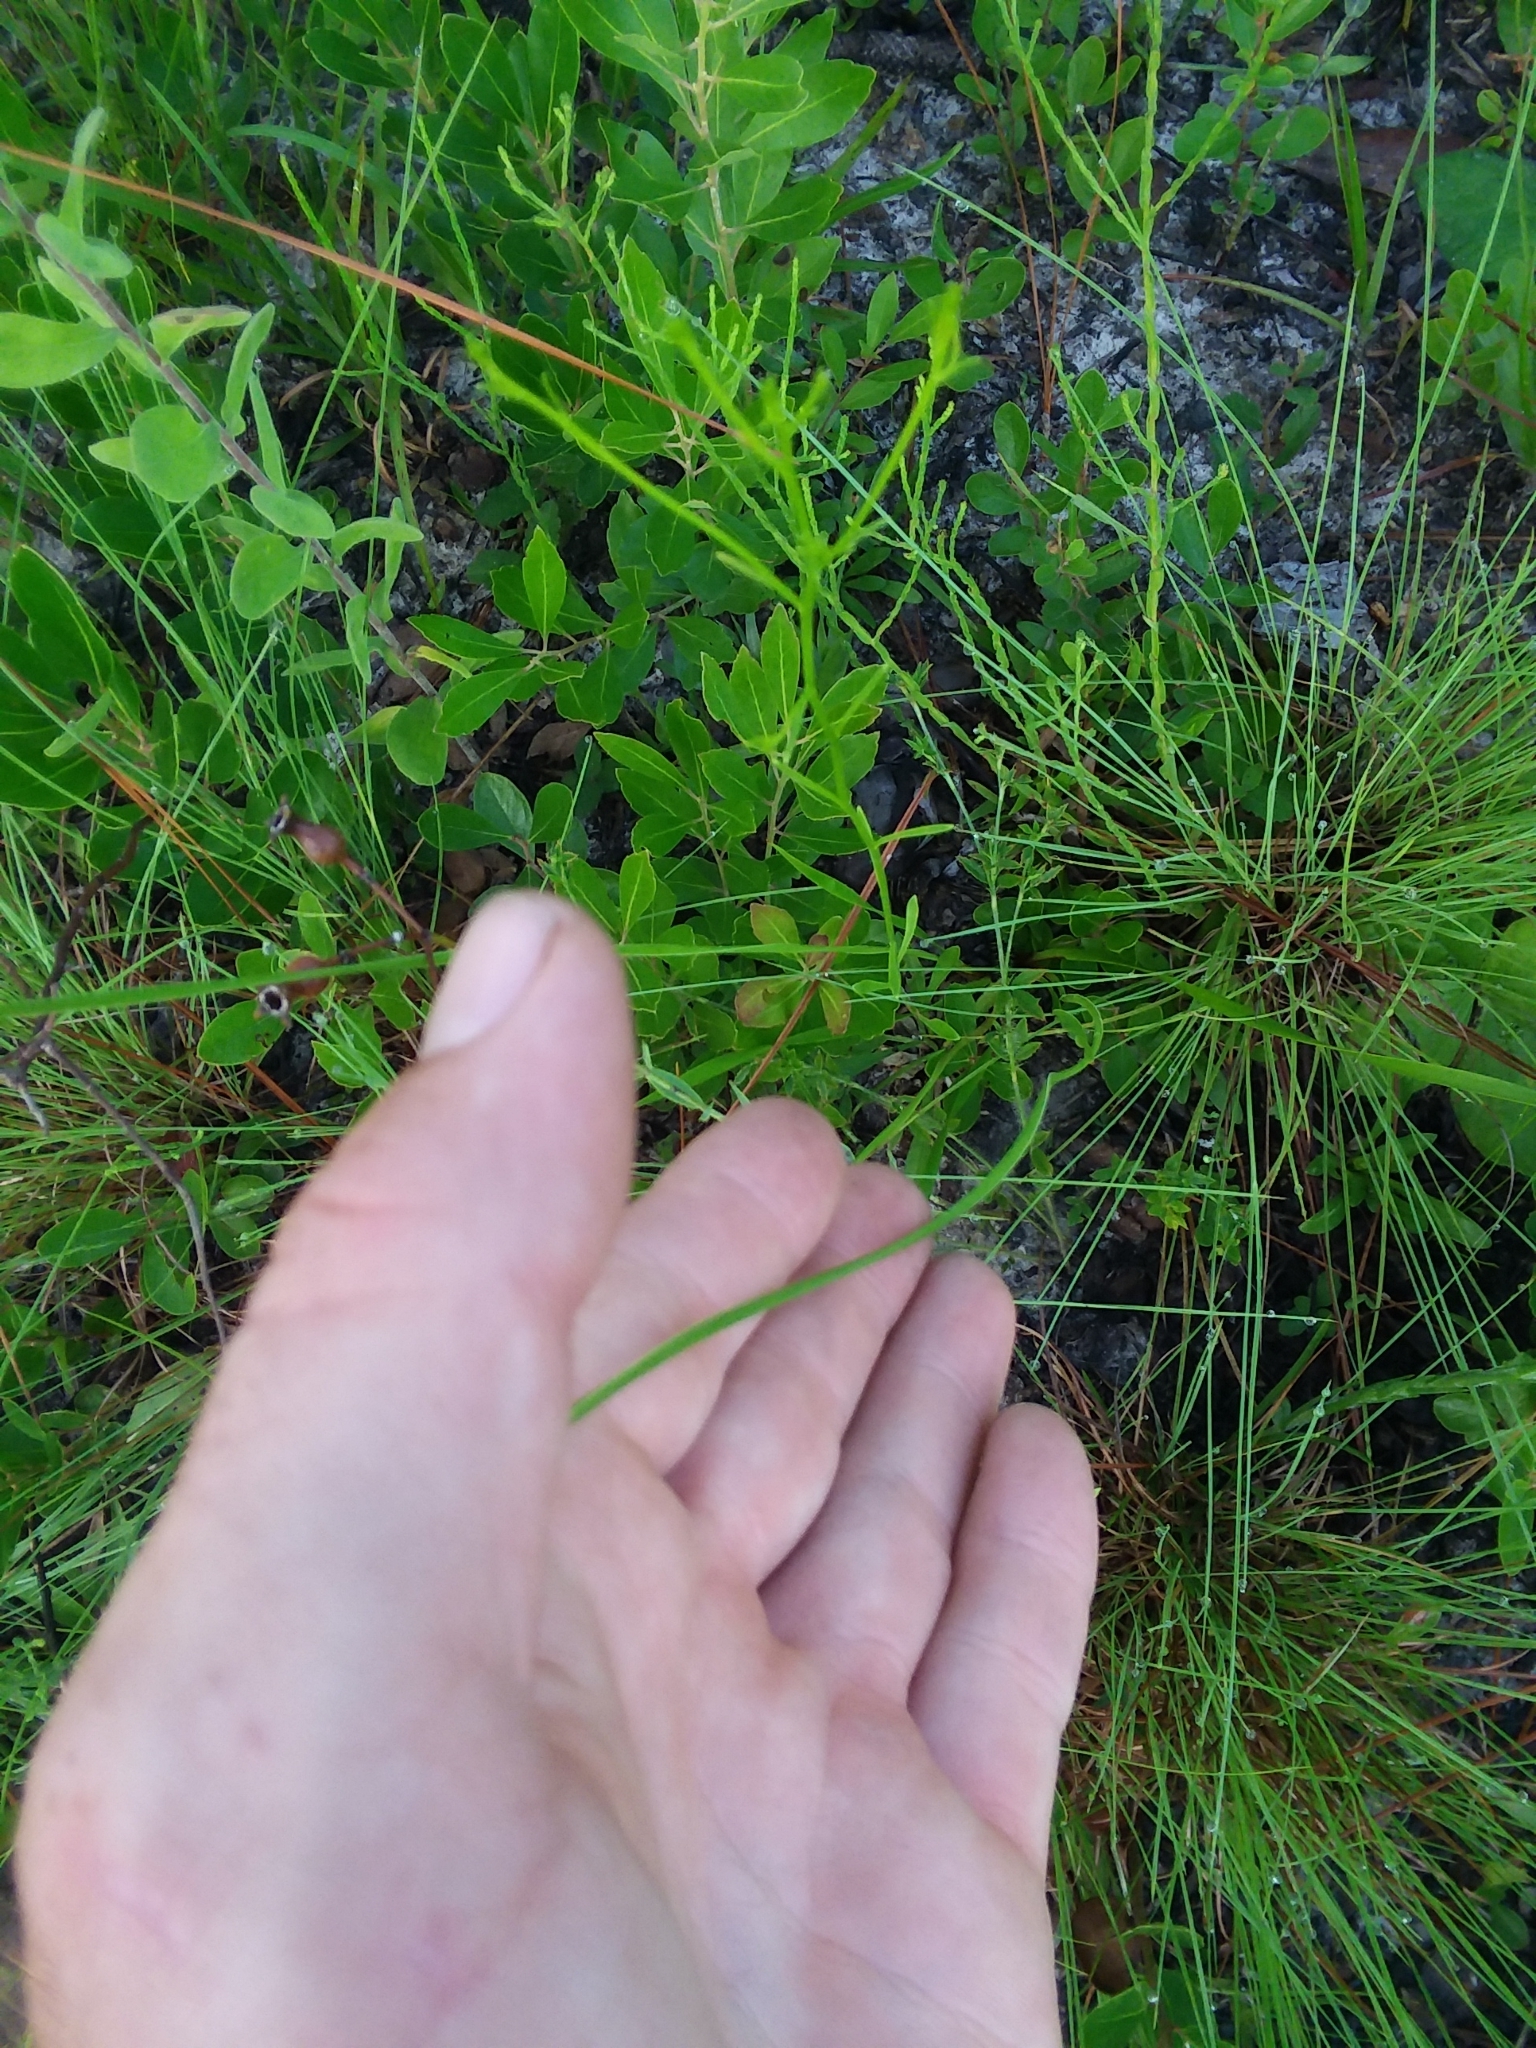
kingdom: Plantae
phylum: Tracheophyta
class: Liliopsida
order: Poales
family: Xyridaceae
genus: Xyris
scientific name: Xyris caroliniana
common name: Carolina yellow-eyed-grass
